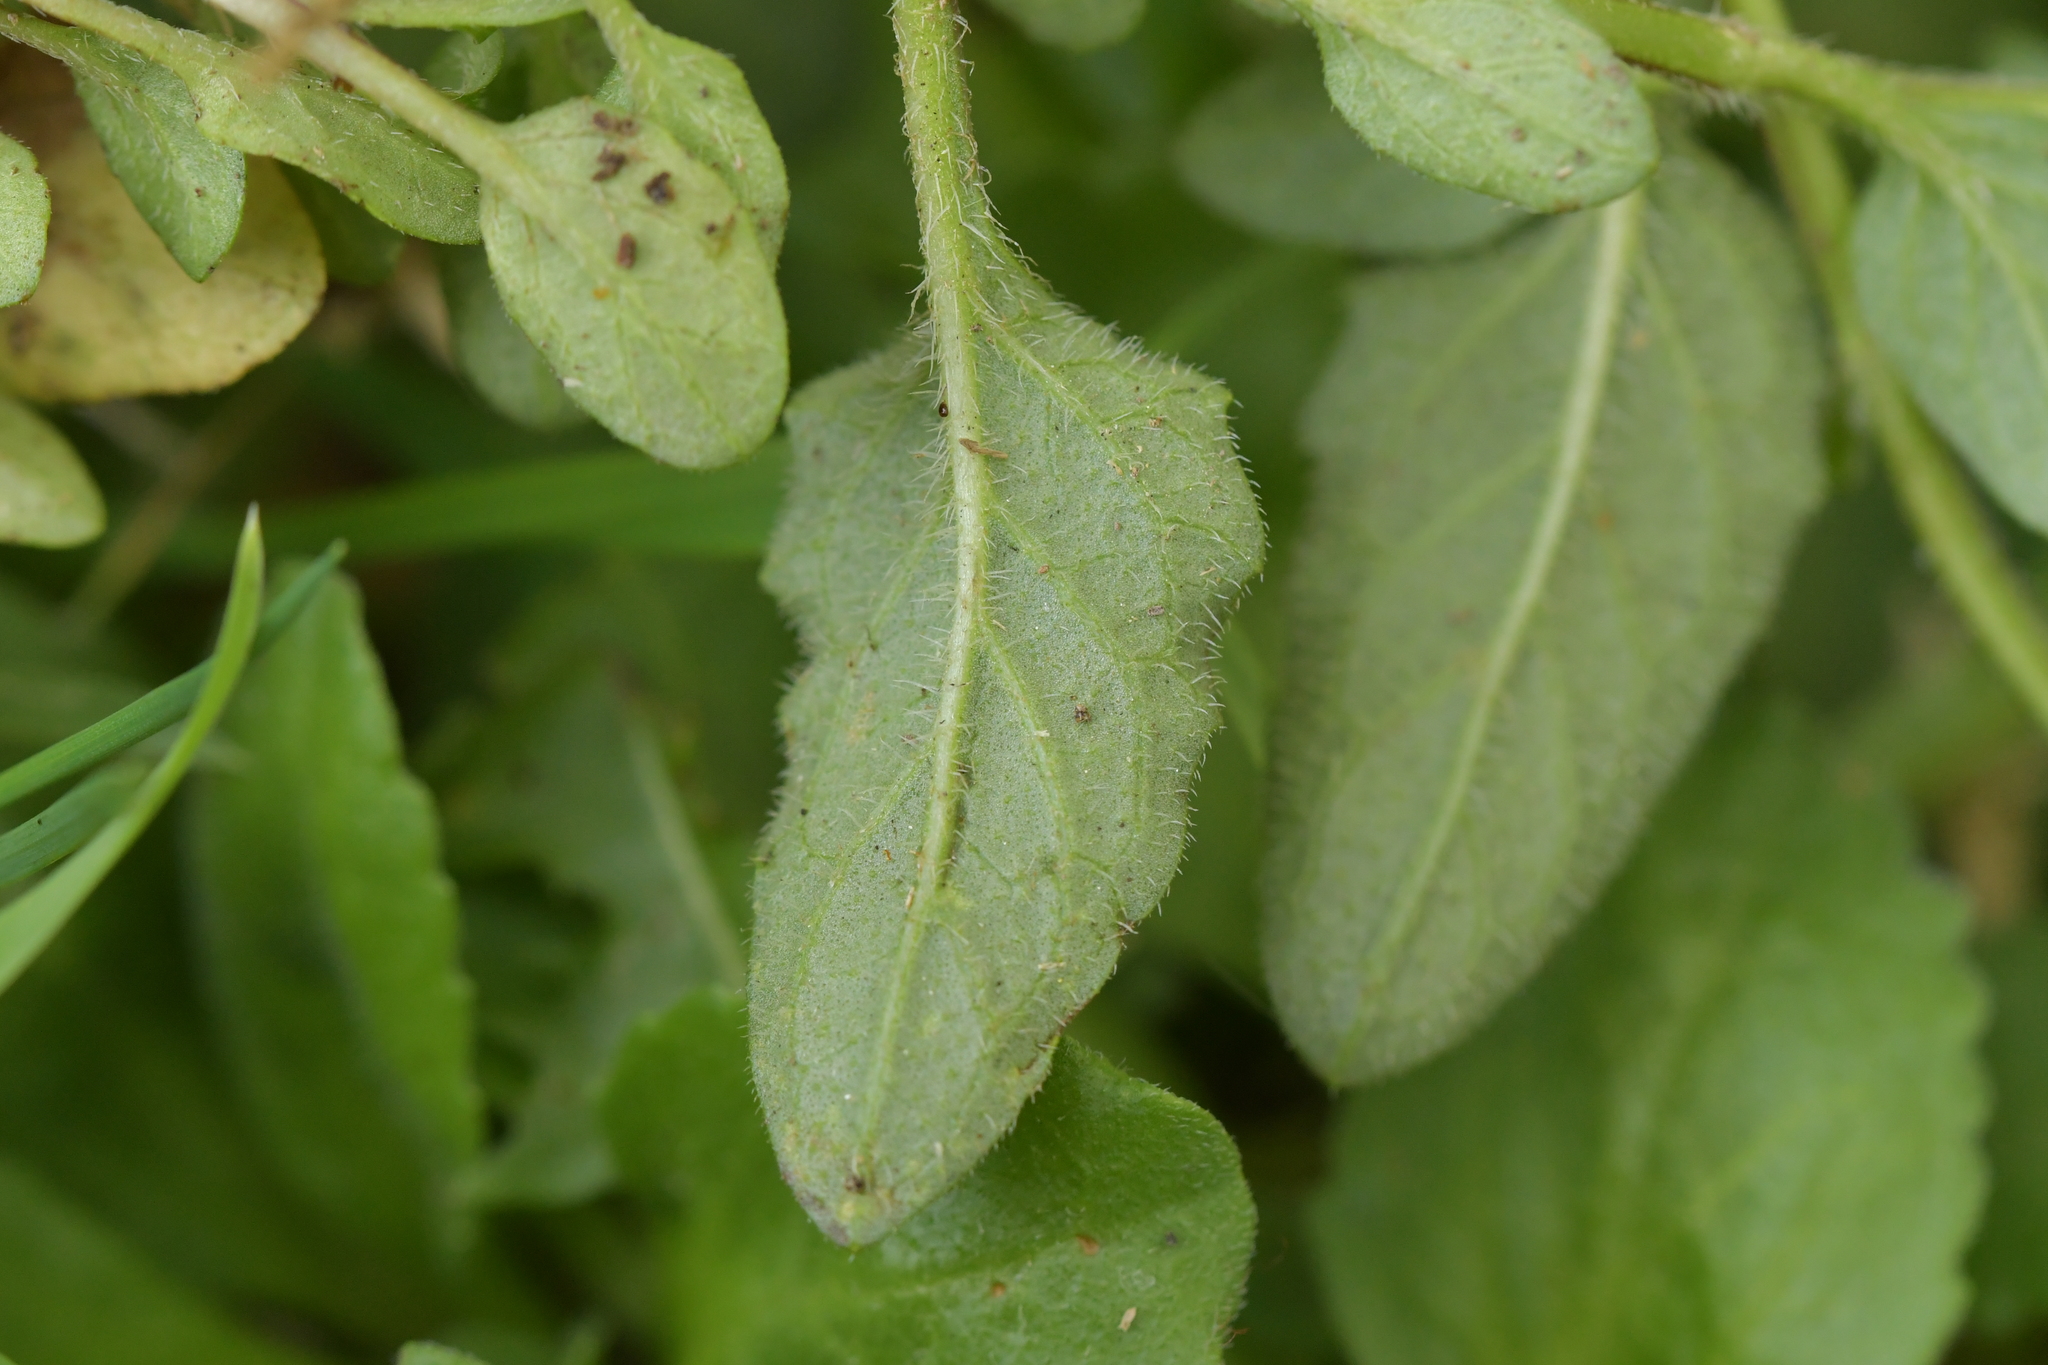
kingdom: Plantae
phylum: Tracheophyta
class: Magnoliopsida
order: Lamiales
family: Lamiaceae
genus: Prunella
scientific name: Prunella vulgaris
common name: Heal-all
